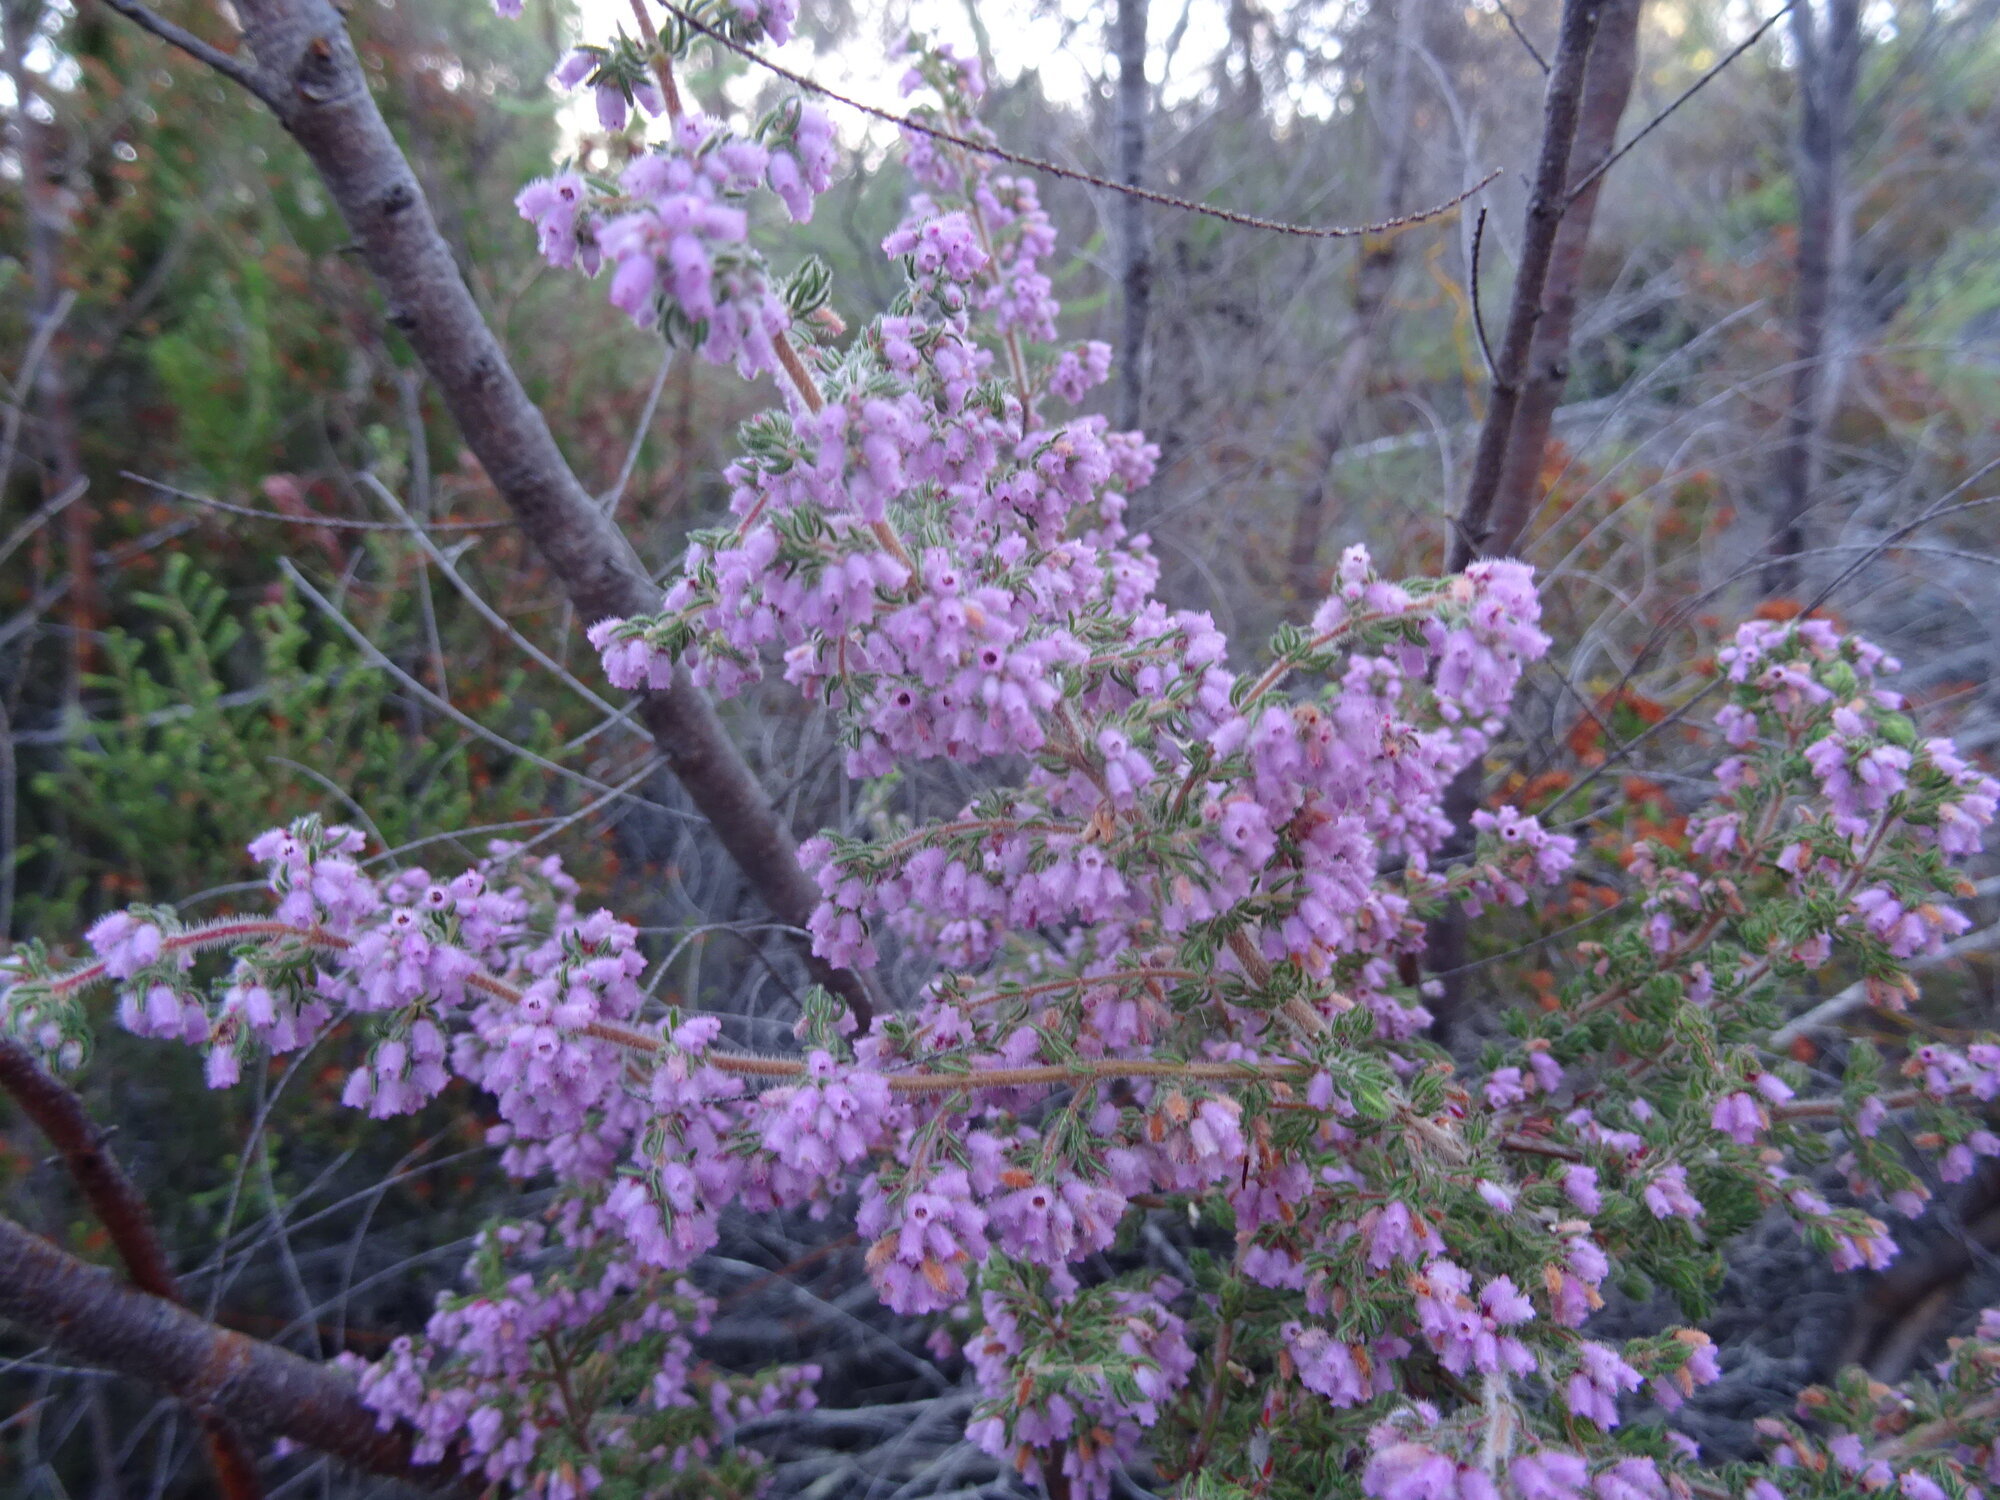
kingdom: Plantae
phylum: Tracheophyta
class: Magnoliopsida
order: Ericales
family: Ericaceae
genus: Erica
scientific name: Erica parviflora
